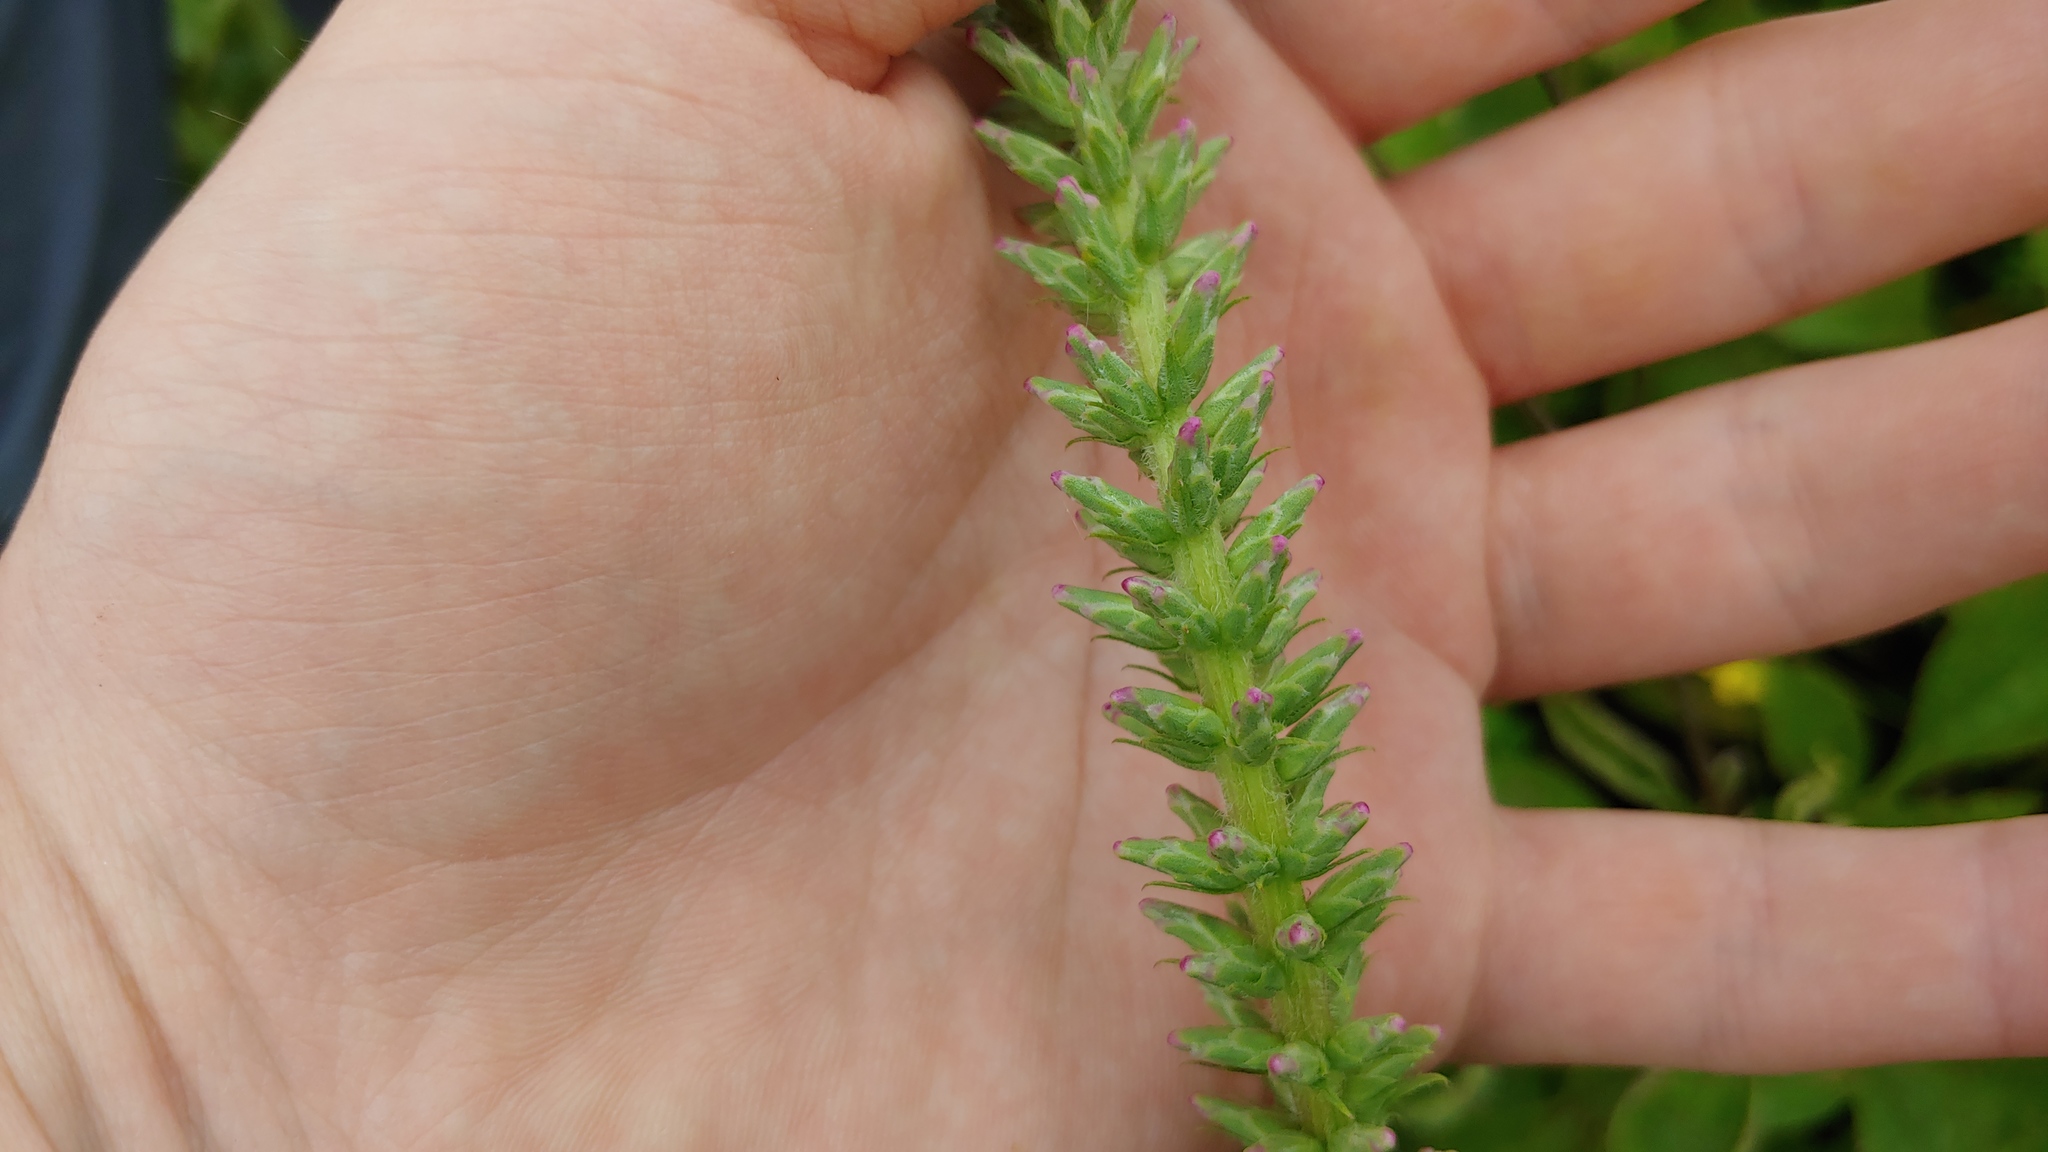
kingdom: Plantae
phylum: Tracheophyta
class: Magnoliopsida
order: Asterales
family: Asteraceae
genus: Liatris
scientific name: Liatris pycnostachya
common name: Cattail gayfeather
